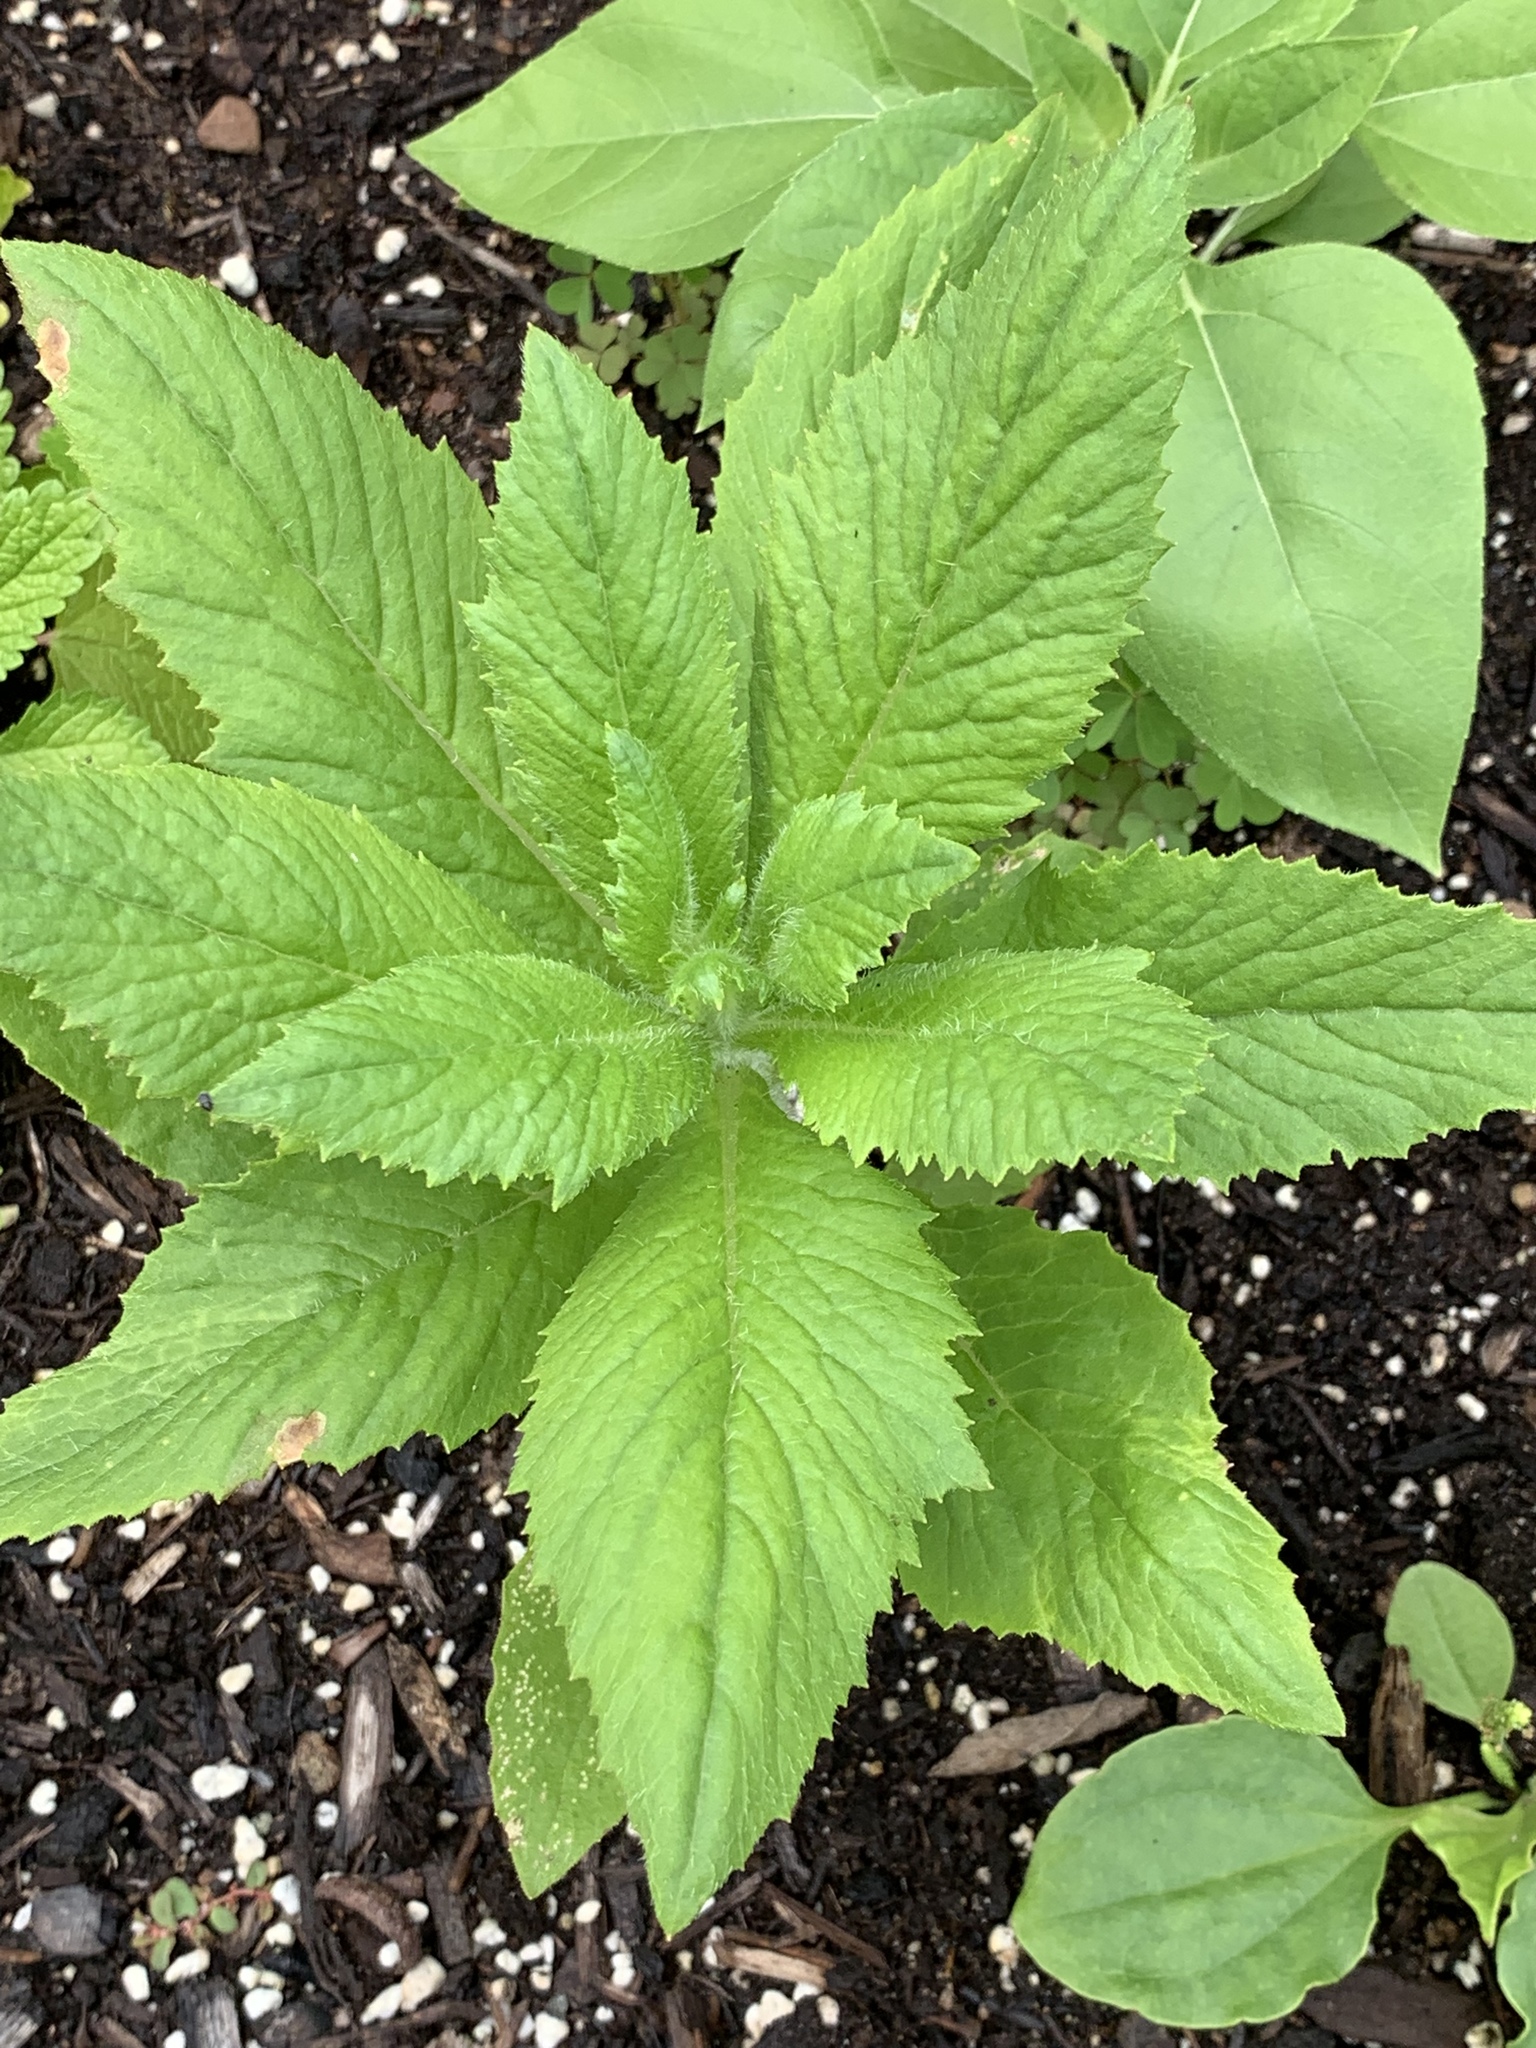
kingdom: Plantae
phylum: Tracheophyta
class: Magnoliopsida
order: Asterales
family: Asteraceae
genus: Erechtites
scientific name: Erechtites hieraciifolius
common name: American burnweed
